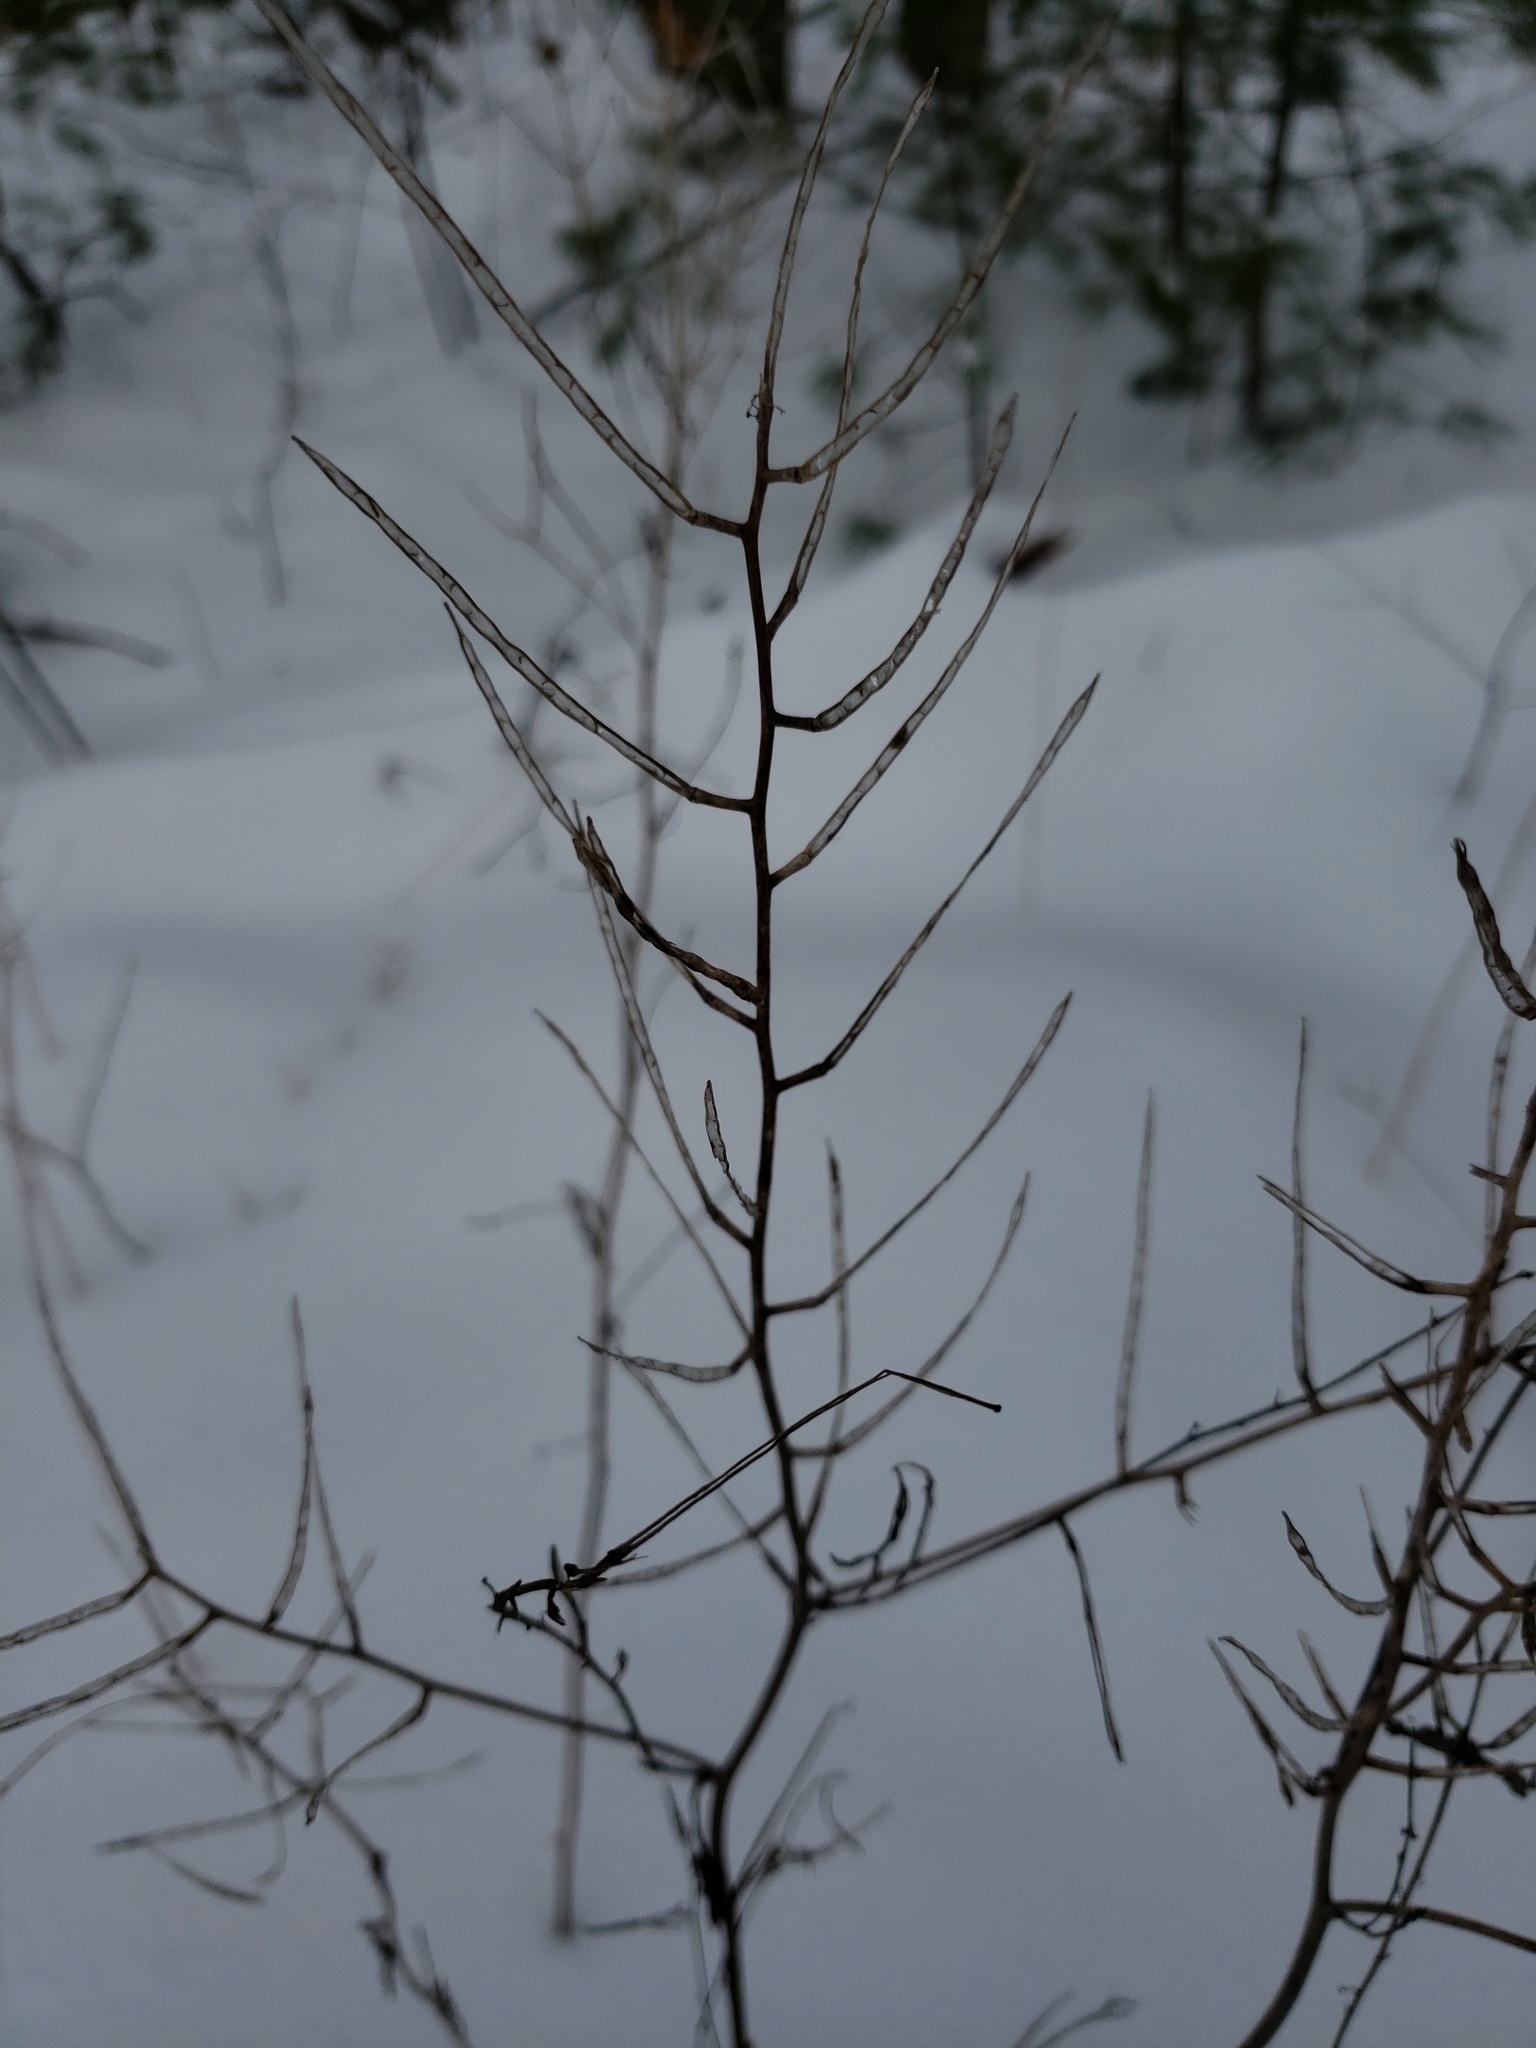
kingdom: Plantae
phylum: Tracheophyta
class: Magnoliopsida
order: Brassicales
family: Brassicaceae
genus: Alliaria
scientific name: Alliaria petiolata
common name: Garlic mustard
